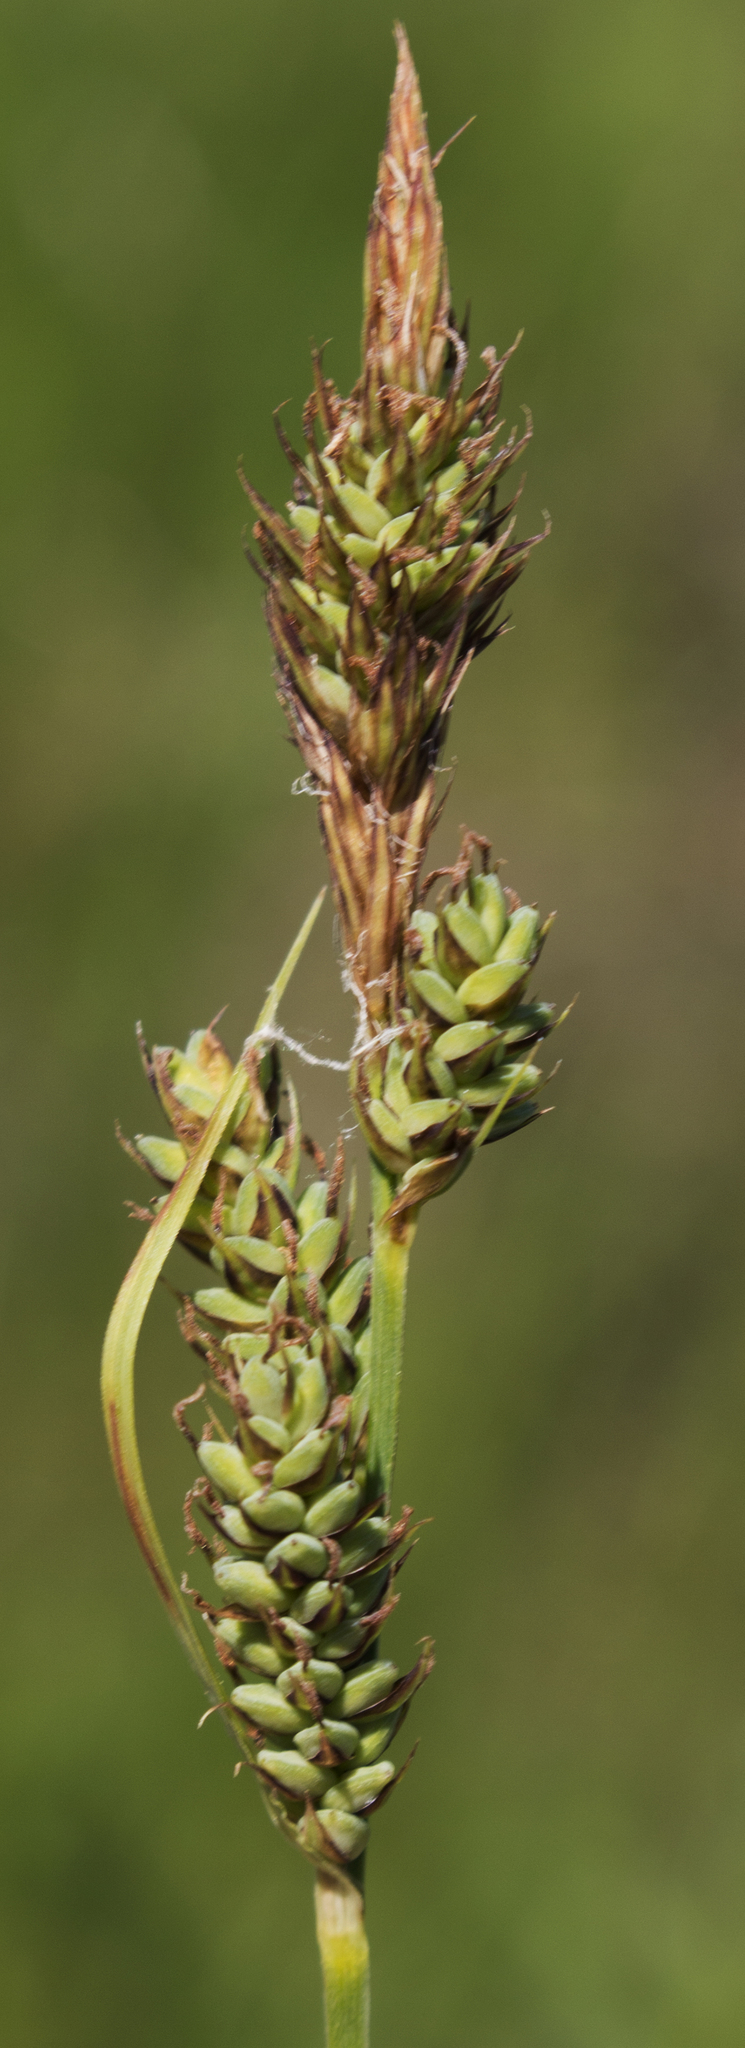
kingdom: Plantae
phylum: Tracheophyta
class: Liliopsida
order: Poales
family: Cyperaceae
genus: Carex
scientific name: Carex buxbaumii
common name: Club sedge
